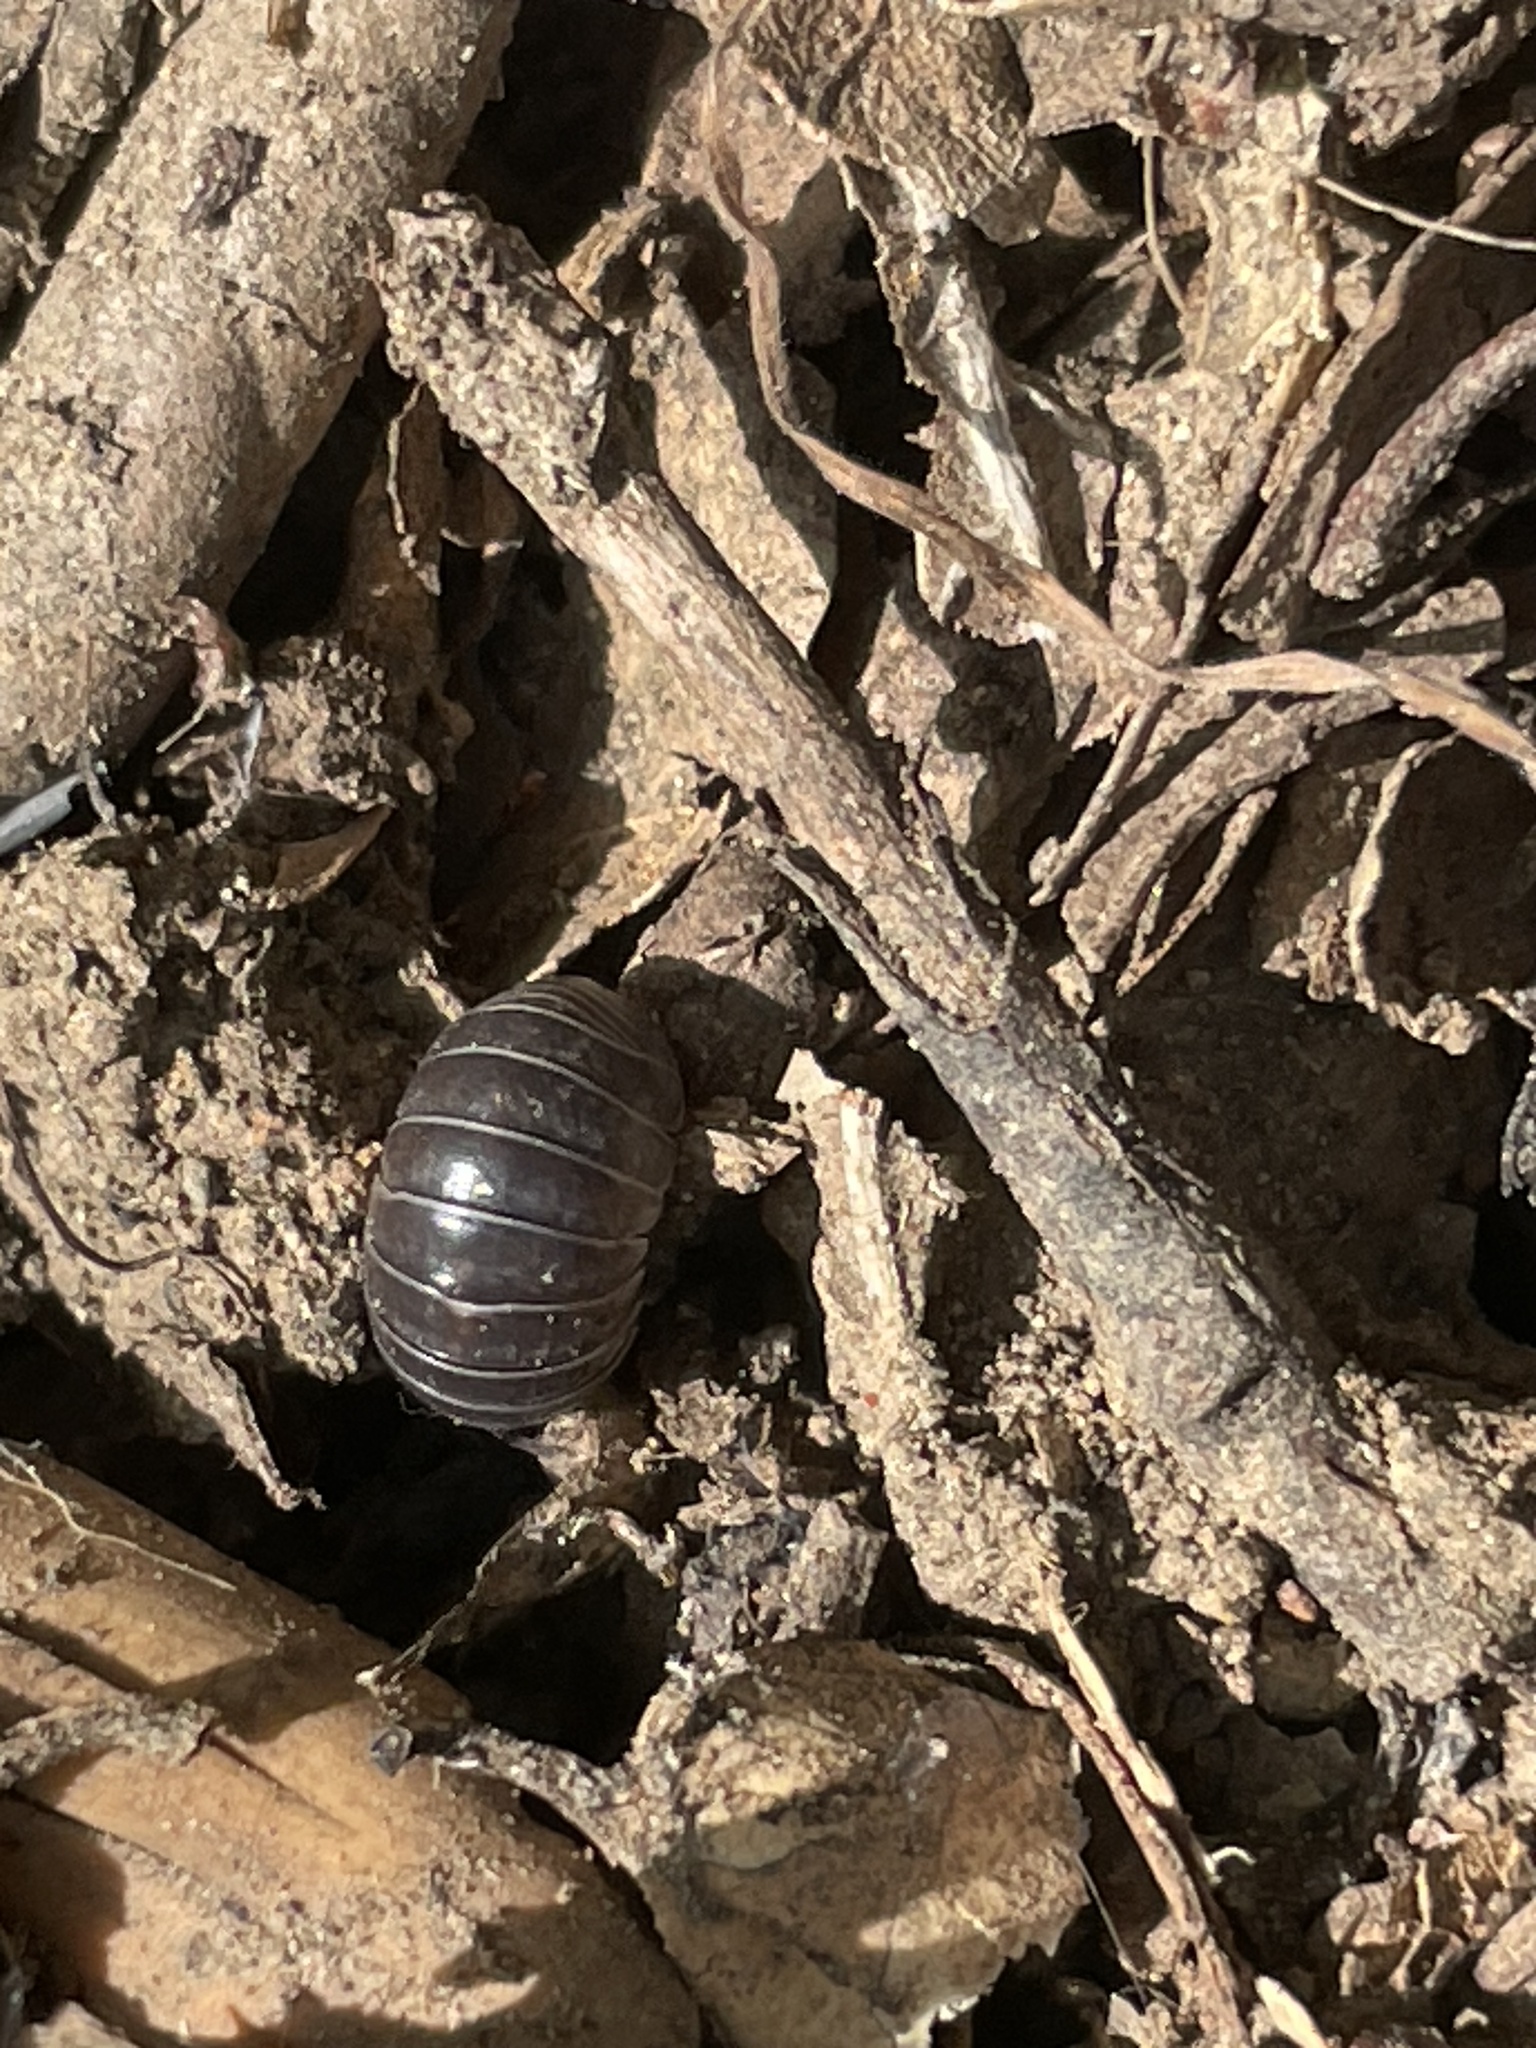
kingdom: Animalia
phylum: Arthropoda
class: Malacostraca
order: Isopoda
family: Armadillidiidae
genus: Armadillidium
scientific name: Armadillidium vulgare
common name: Common pill woodlouse
